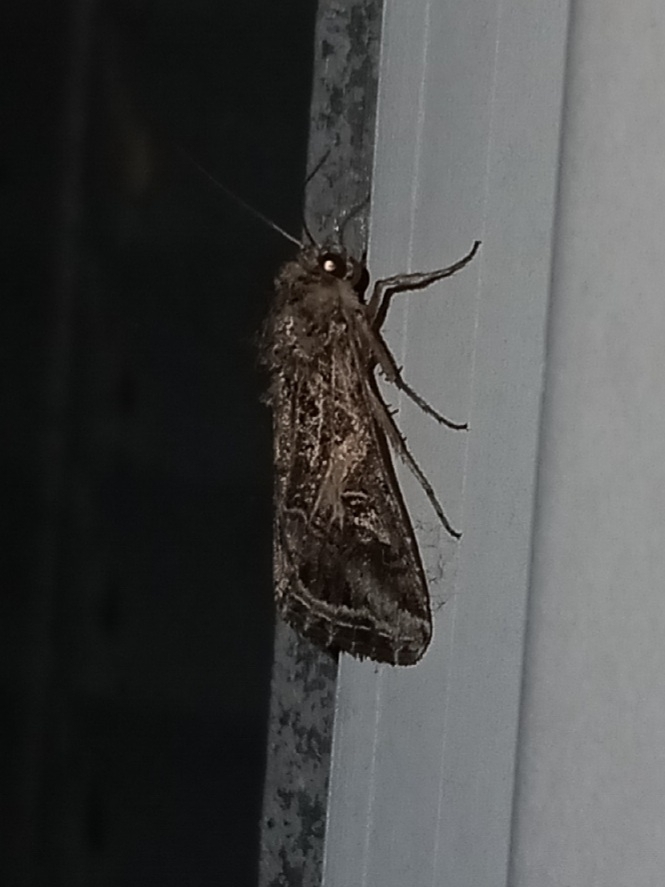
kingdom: Animalia
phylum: Arthropoda
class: Insecta
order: Lepidoptera
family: Noctuidae
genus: Spodoptera
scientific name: Spodoptera ornithogalli
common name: Yellow-striped armyworm
